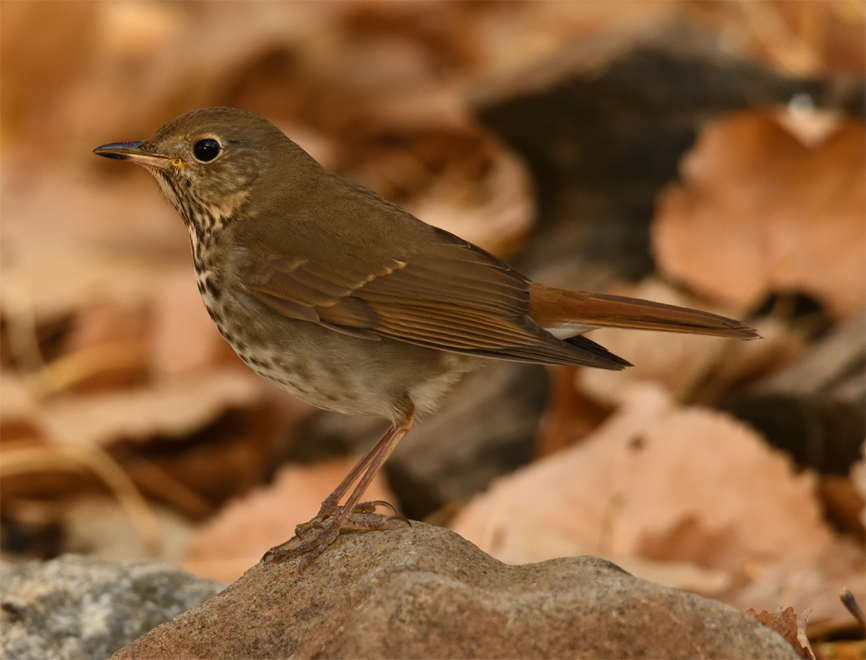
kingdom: Animalia
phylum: Chordata
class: Aves
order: Passeriformes
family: Turdidae
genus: Catharus
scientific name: Catharus guttatus
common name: Hermit thrush
